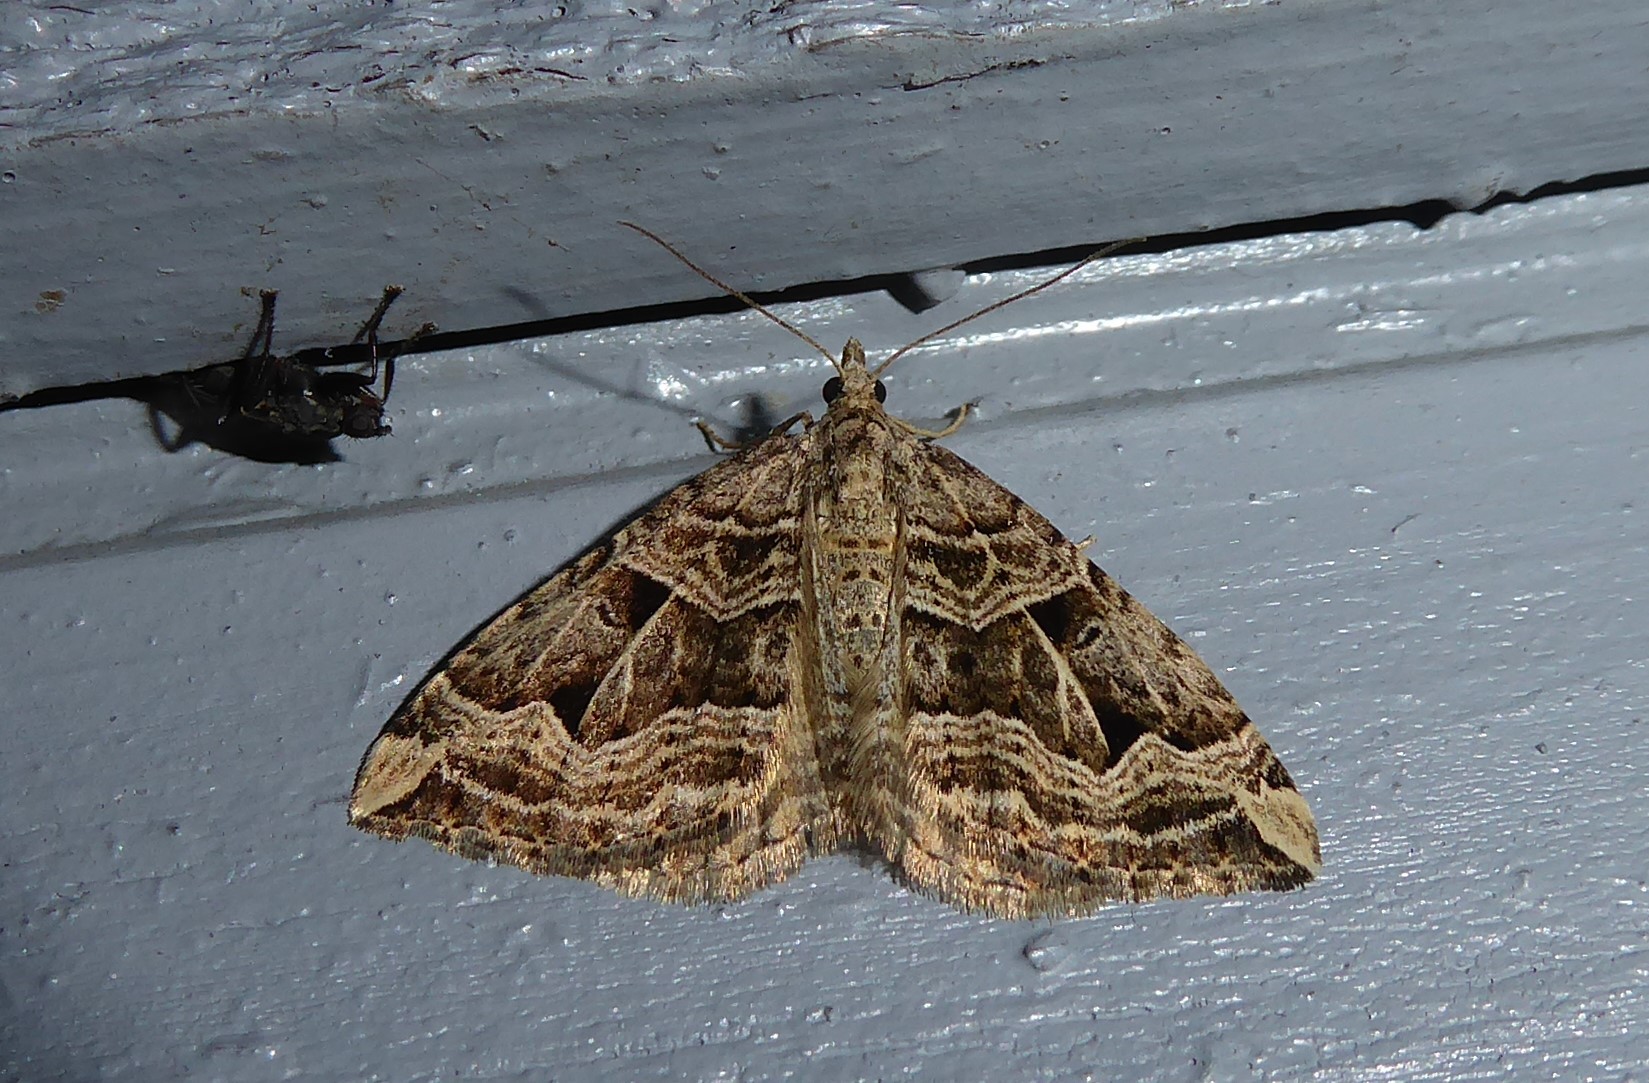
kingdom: Animalia
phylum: Arthropoda
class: Insecta
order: Lepidoptera
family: Geometridae
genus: Xanthorhoe
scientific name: Xanthorhoe semifissata
